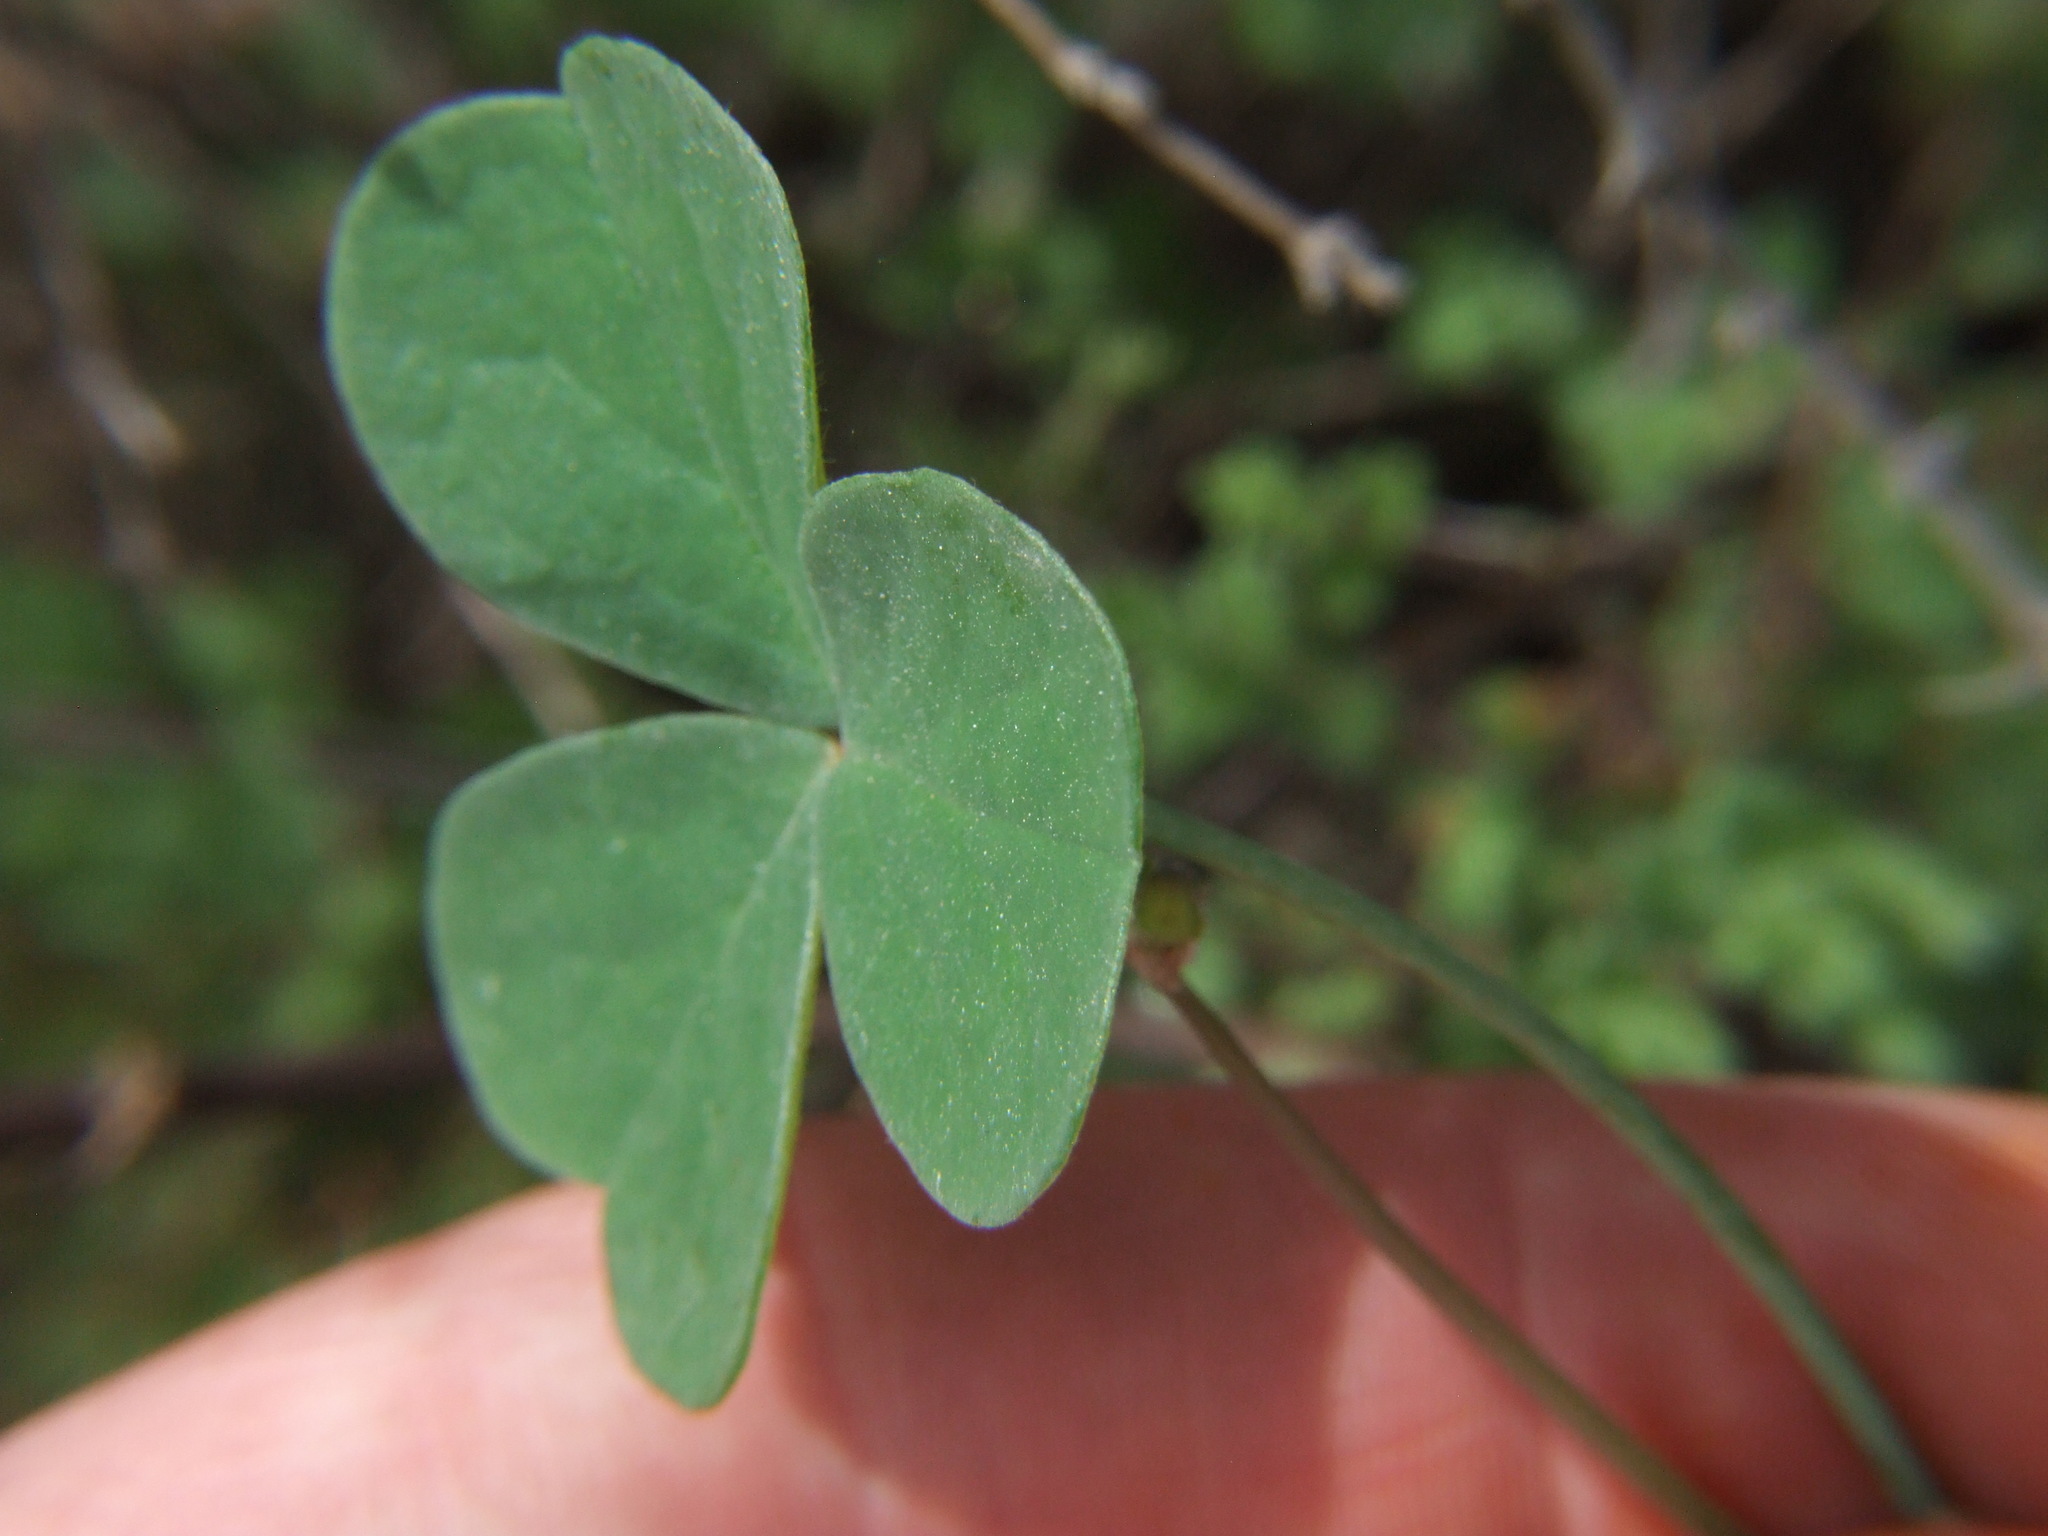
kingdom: Plantae
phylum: Tracheophyta
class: Magnoliopsida
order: Oxalidales
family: Oxalidaceae
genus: Oxalis
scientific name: Oxalis megalorrhiza
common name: Fleshy yellow-sorrel
